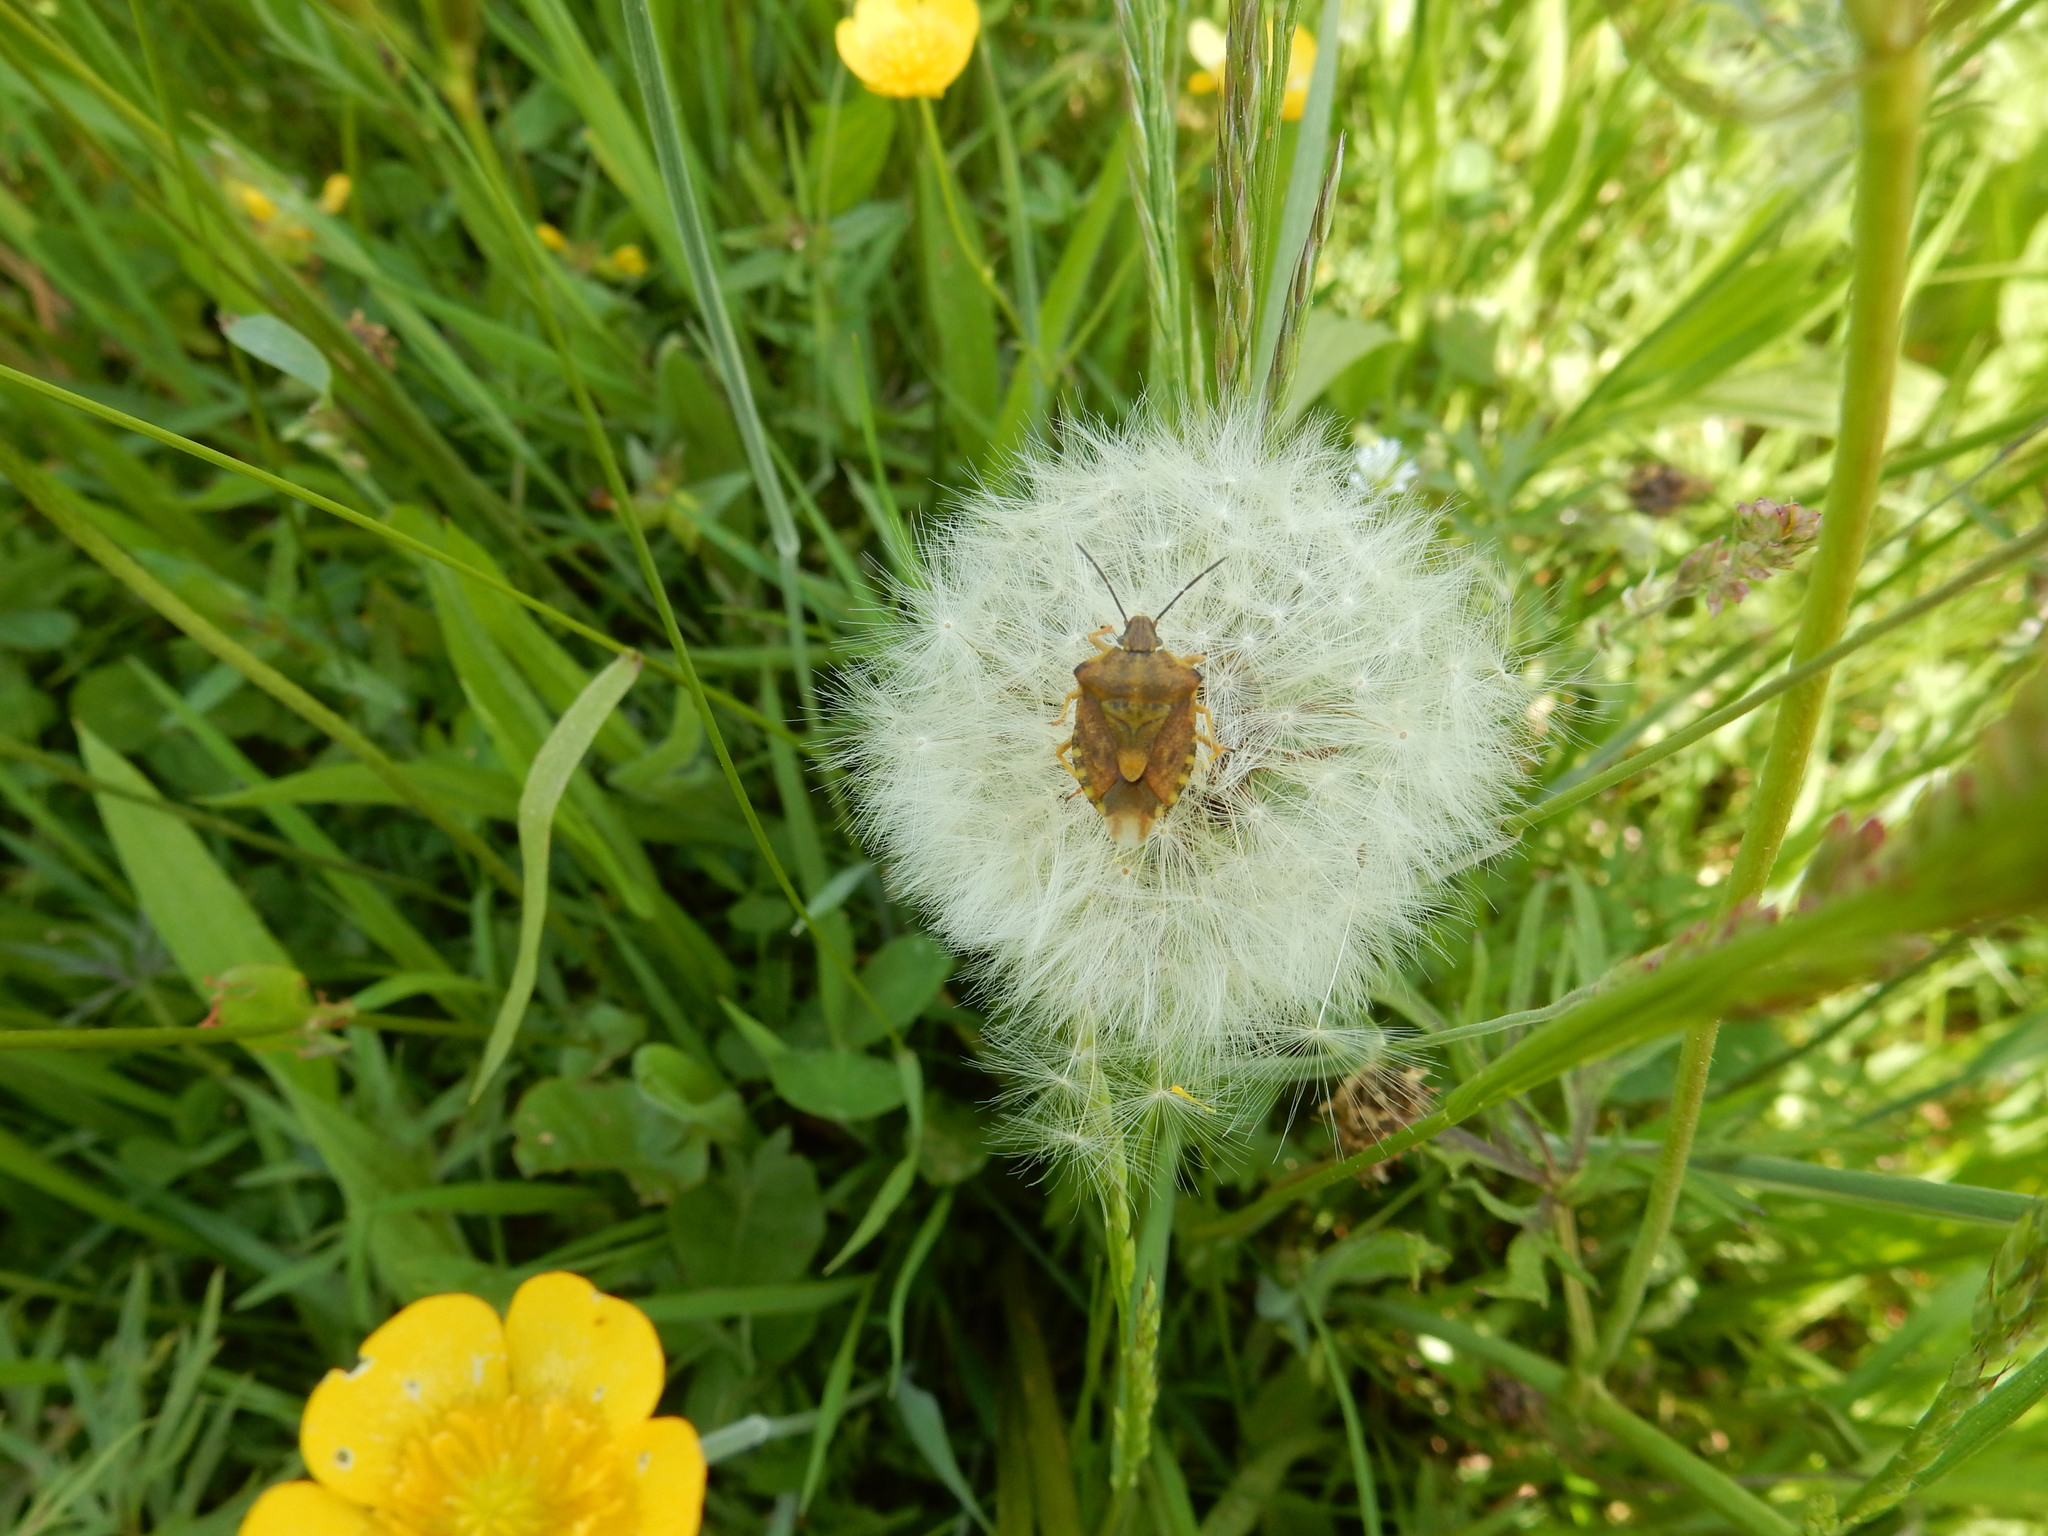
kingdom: Animalia
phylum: Arthropoda
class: Insecta
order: Hemiptera
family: Pentatomidae
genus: Carpocoris
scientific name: Carpocoris purpureipennis
